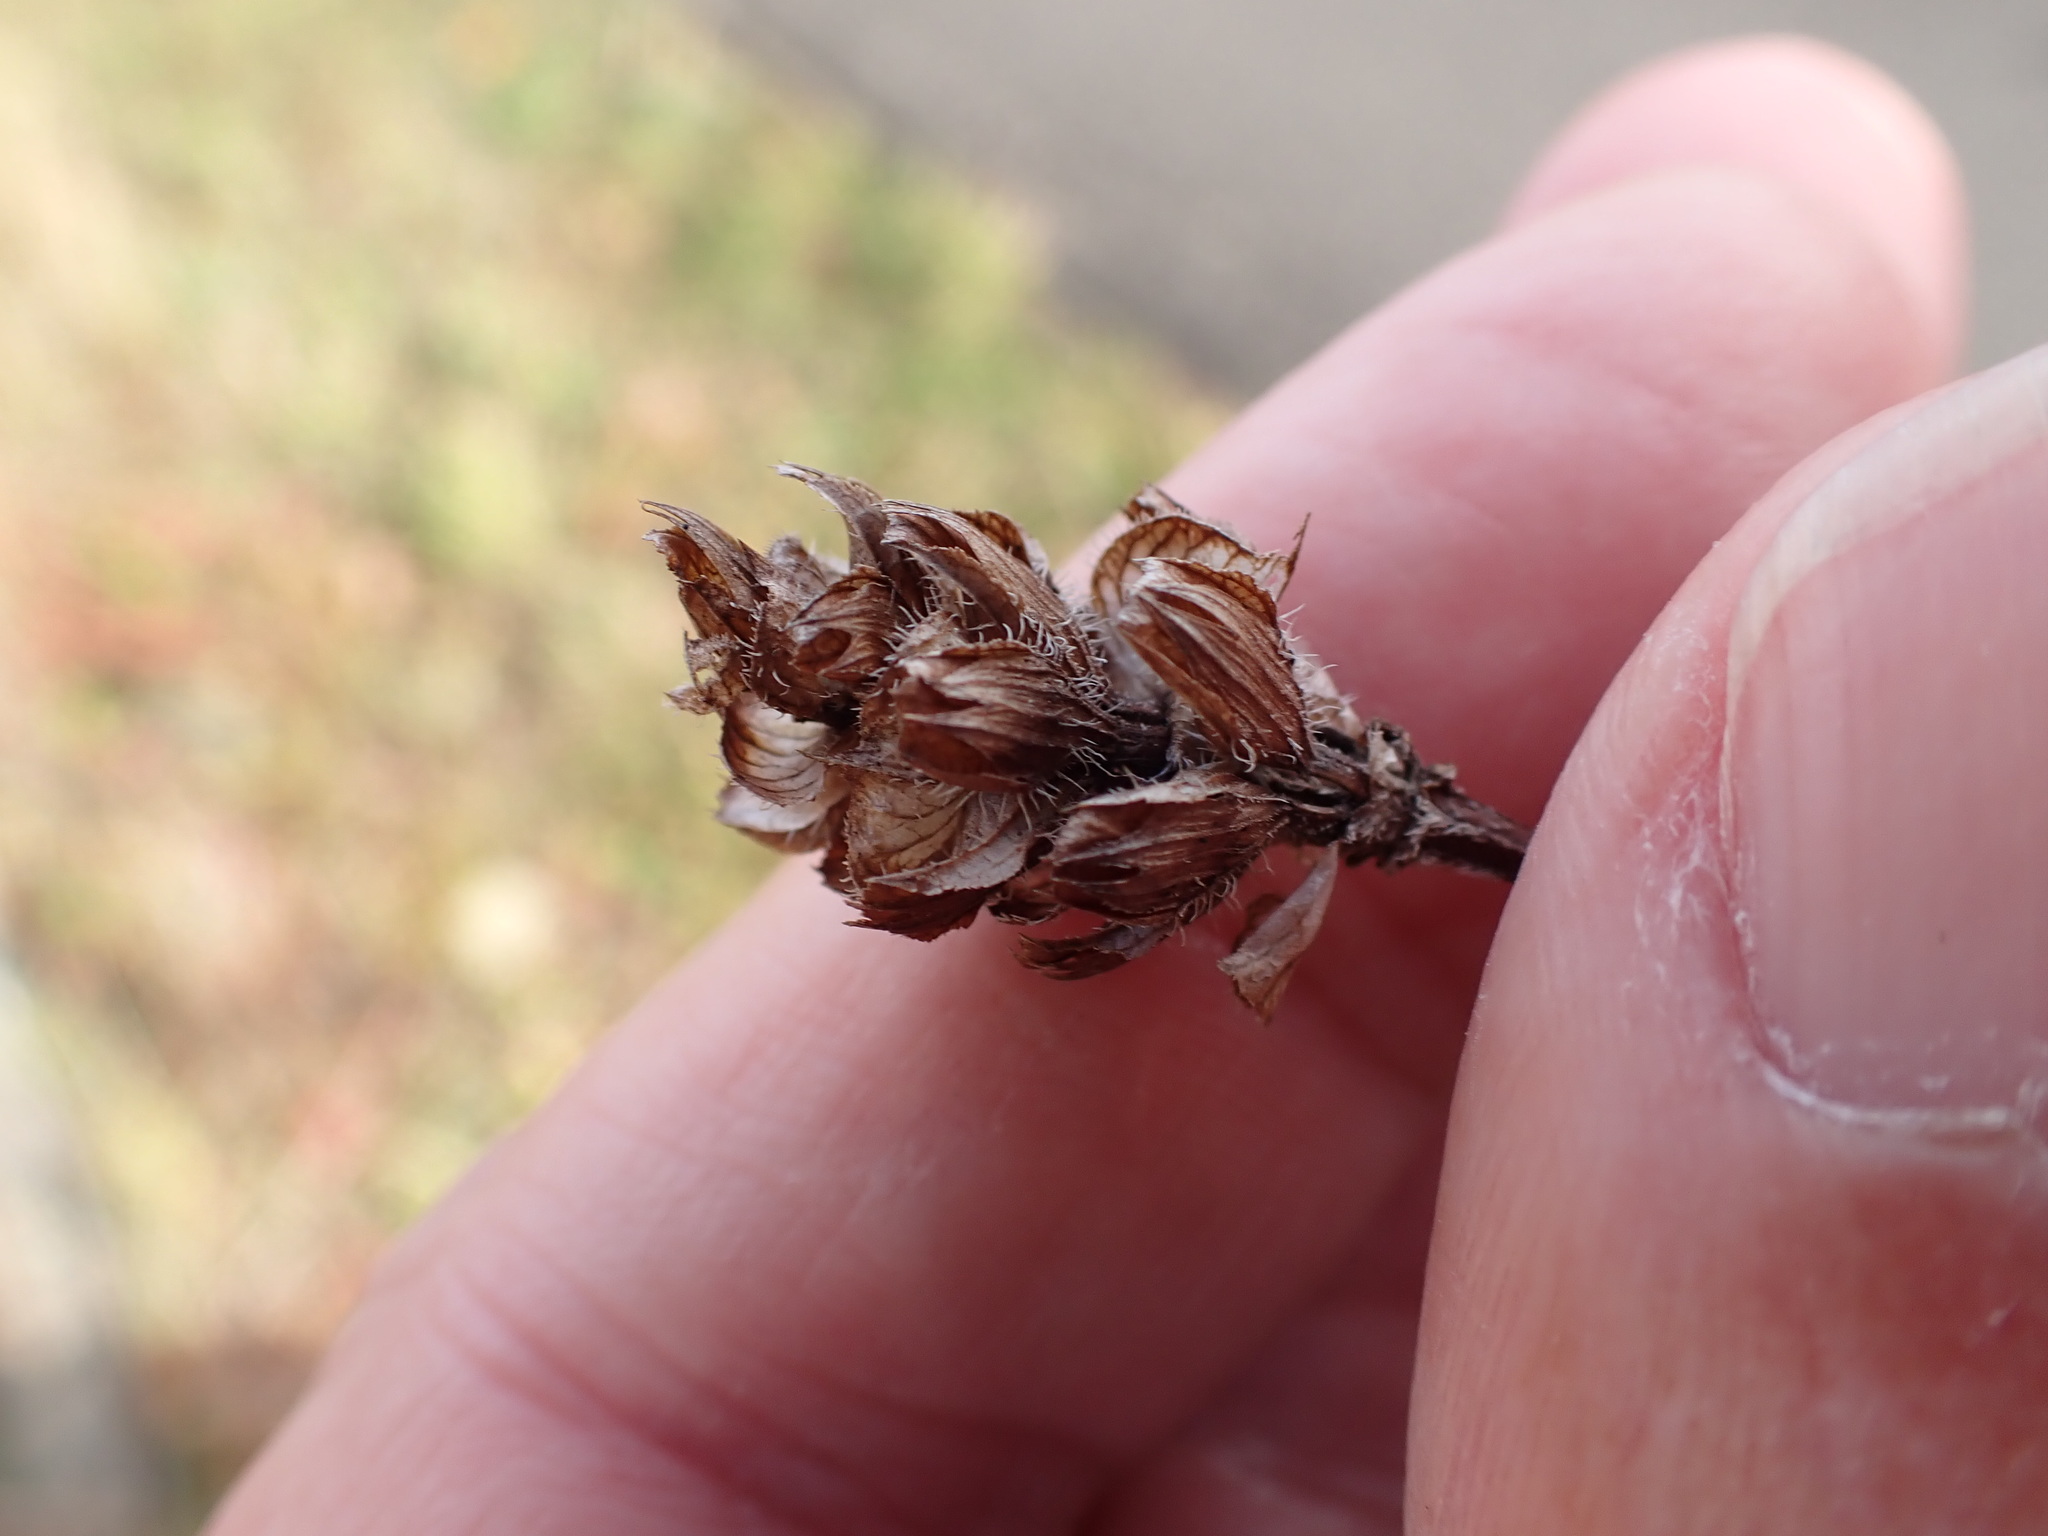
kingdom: Plantae
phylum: Tracheophyta
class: Magnoliopsida
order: Lamiales
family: Lamiaceae
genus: Prunella
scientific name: Prunella vulgaris
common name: Heal-all
